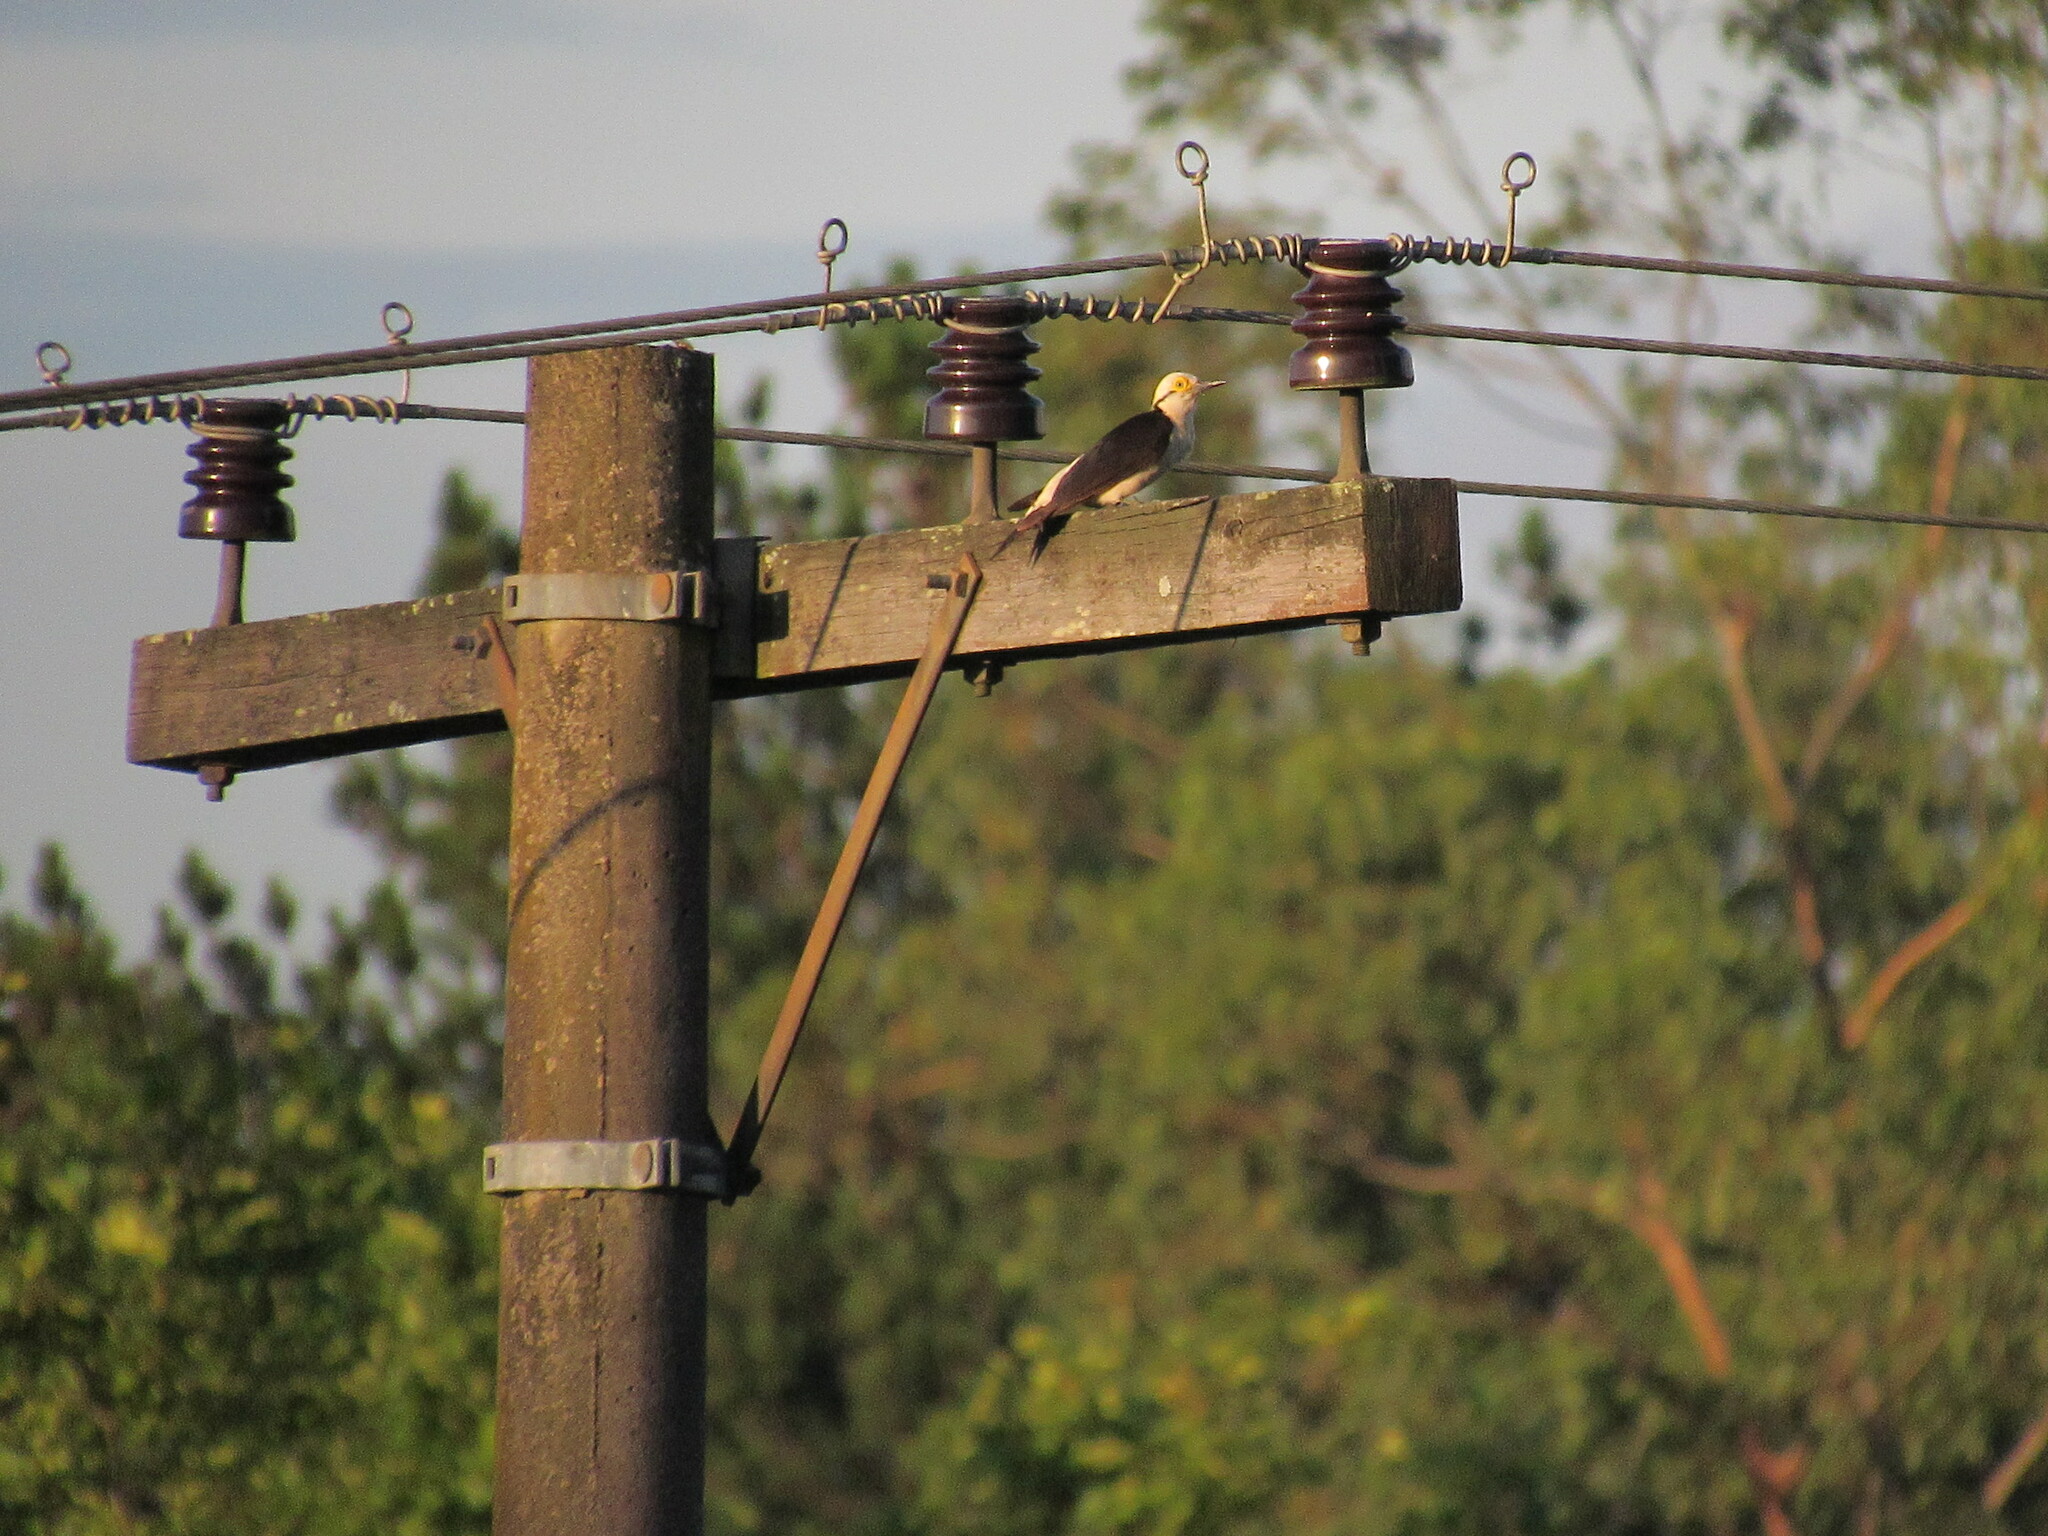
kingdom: Animalia
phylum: Chordata
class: Aves
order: Piciformes
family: Picidae
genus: Melanerpes
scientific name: Melanerpes candidus
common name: White woodpecker
